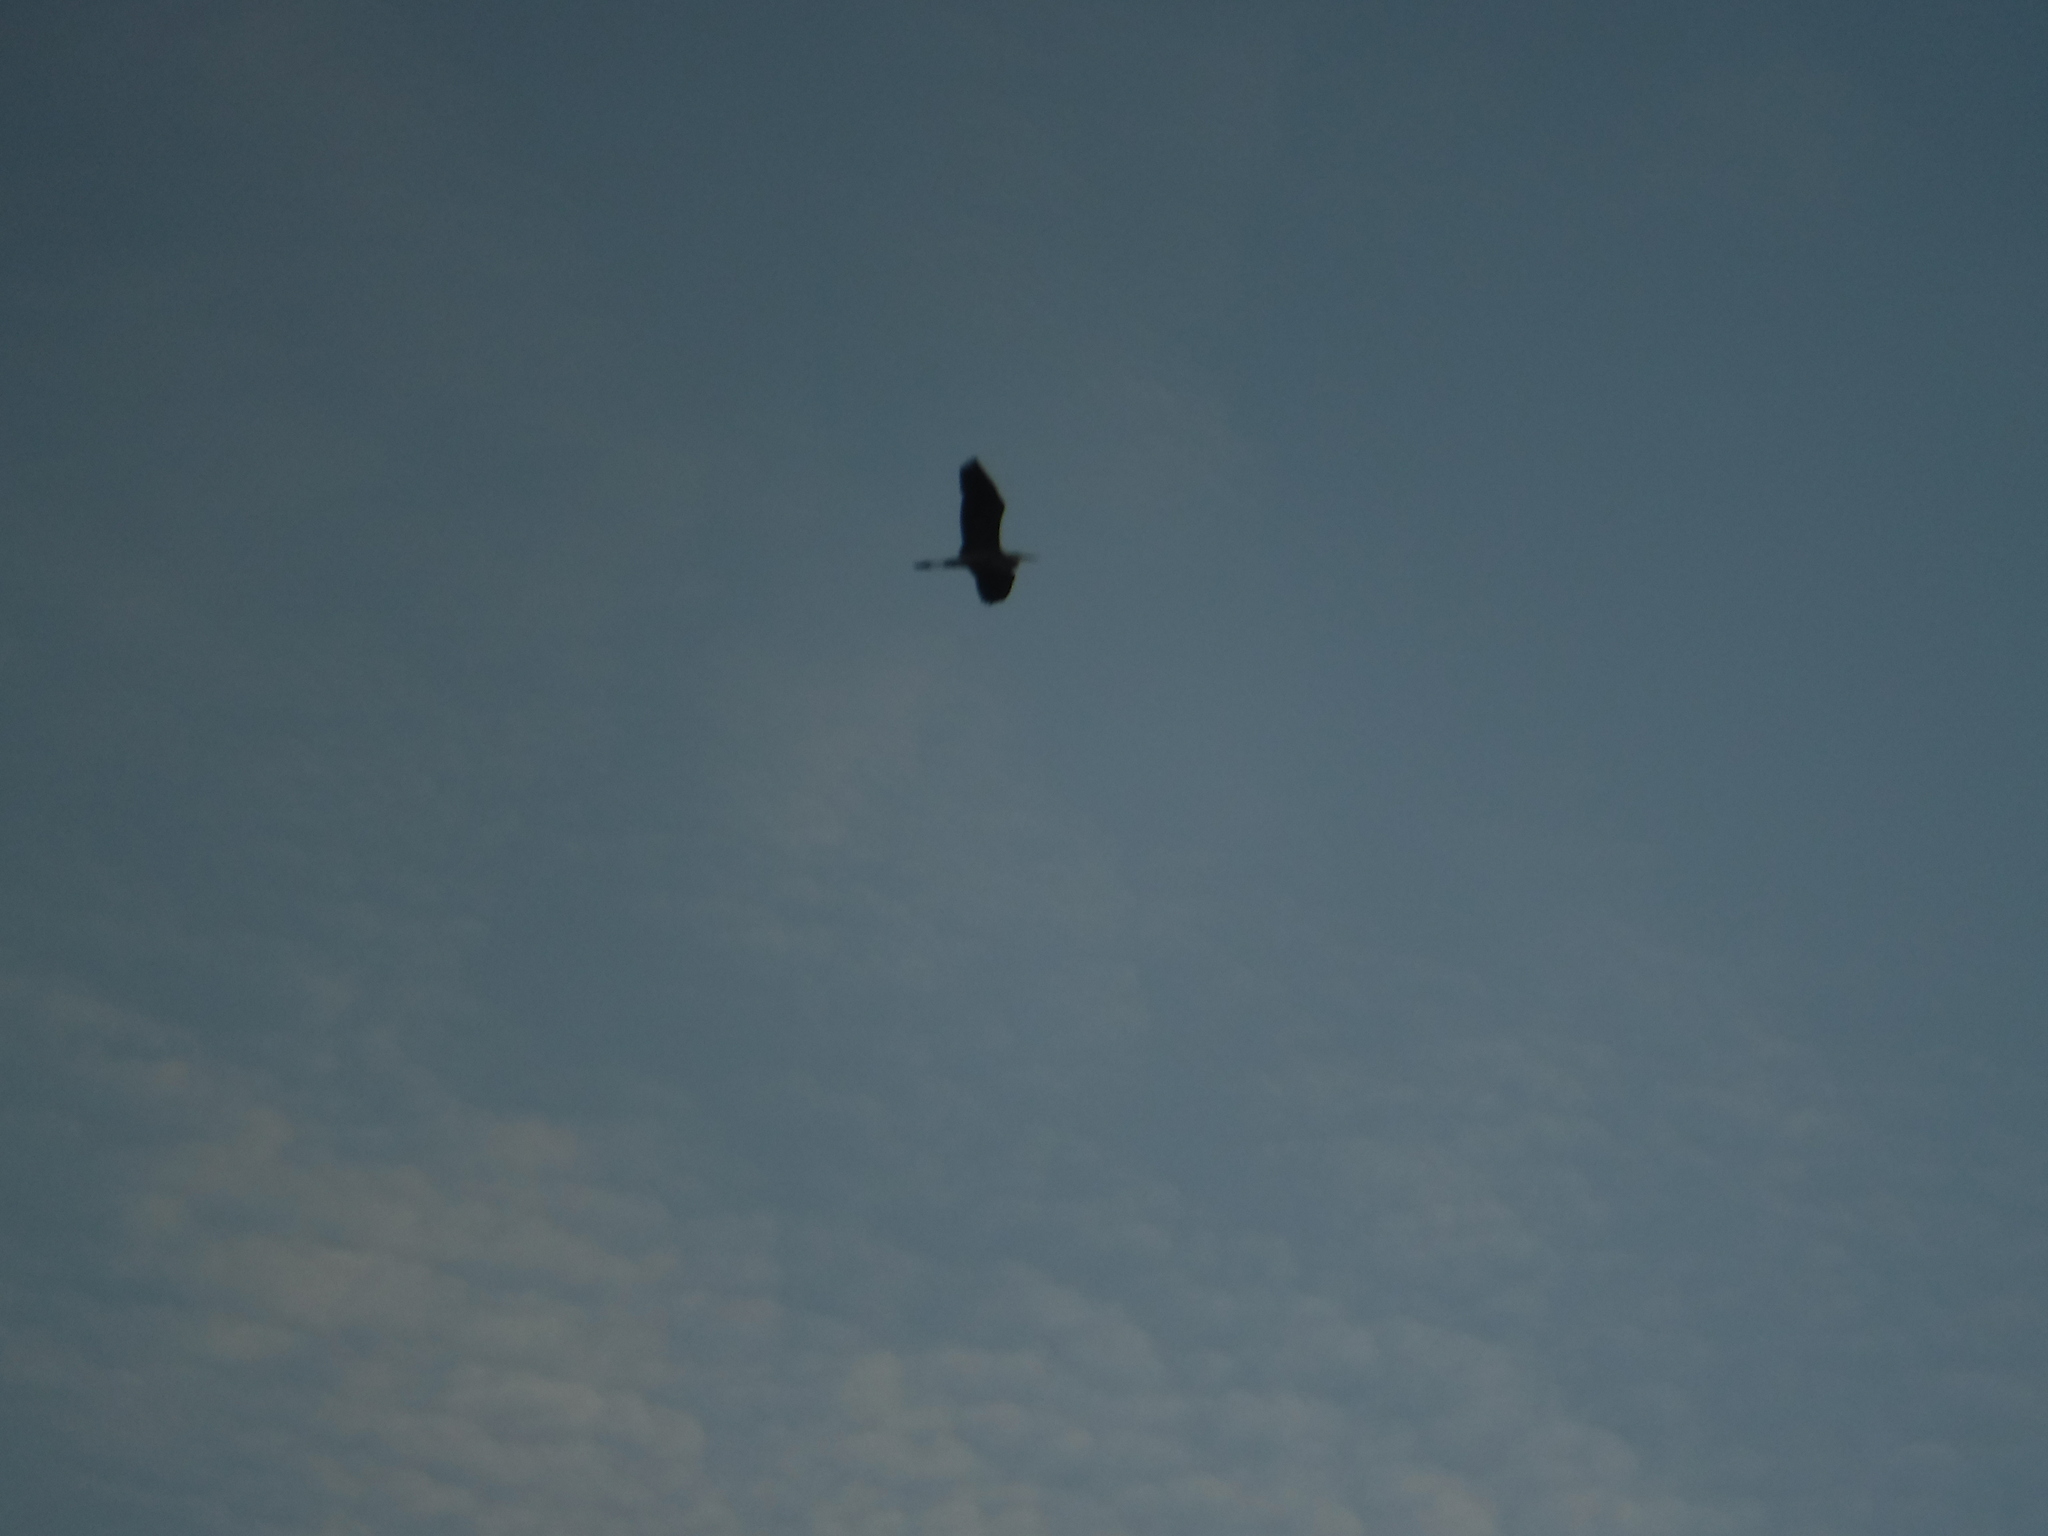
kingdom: Animalia
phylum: Chordata
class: Aves
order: Pelecaniformes
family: Ardeidae
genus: Ardea
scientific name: Ardea herodias
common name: Great blue heron
